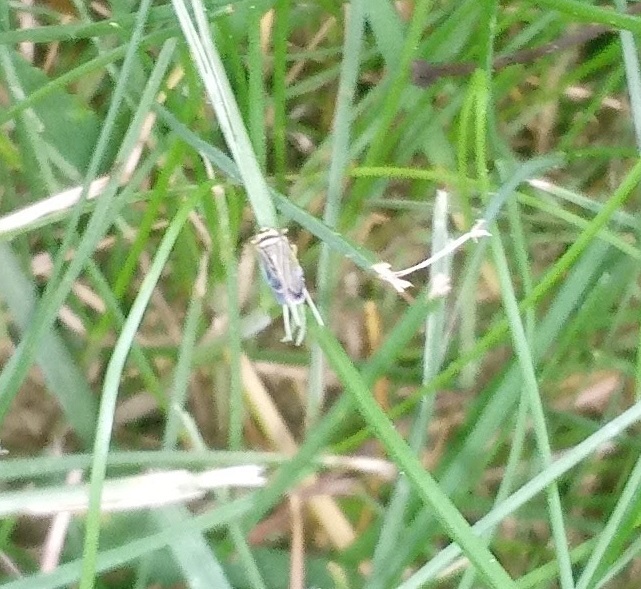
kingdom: Animalia
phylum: Arthropoda
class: Insecta
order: Hemiptera
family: Cicadellidae
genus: Amblysellus
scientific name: Amblysellus curtisii
